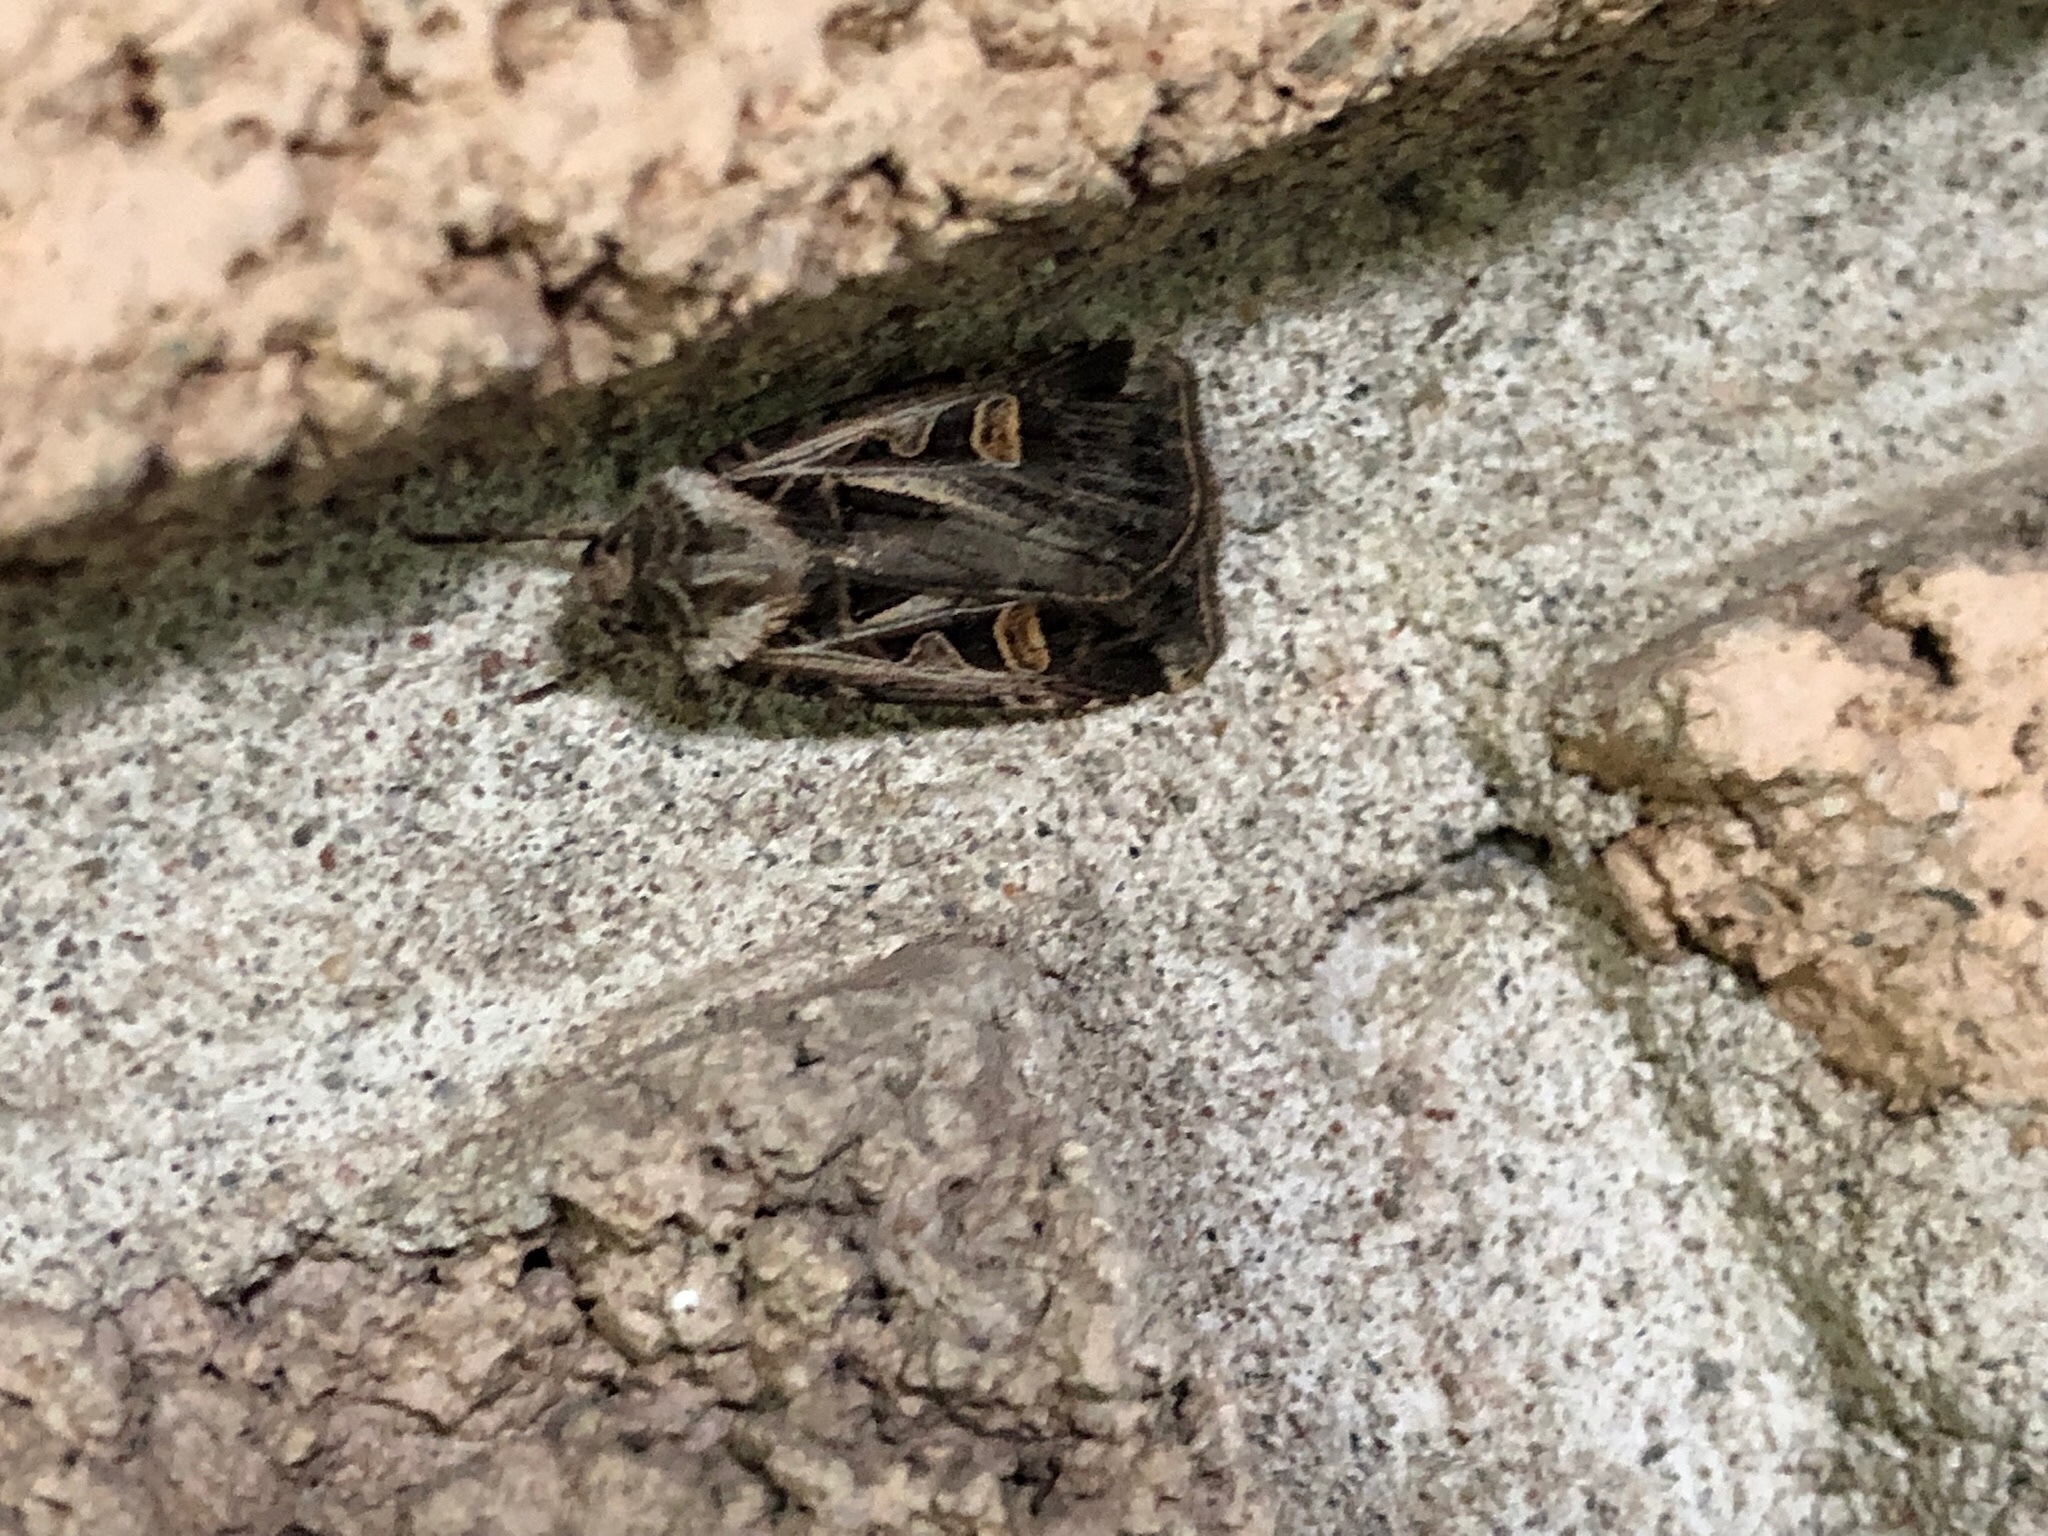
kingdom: Animalia
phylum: Arthropoda
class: Insecta
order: Lepidoptera
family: Noctuidae
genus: Feltia
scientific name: Feltia jaculifera
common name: Dingy cutworm moth
